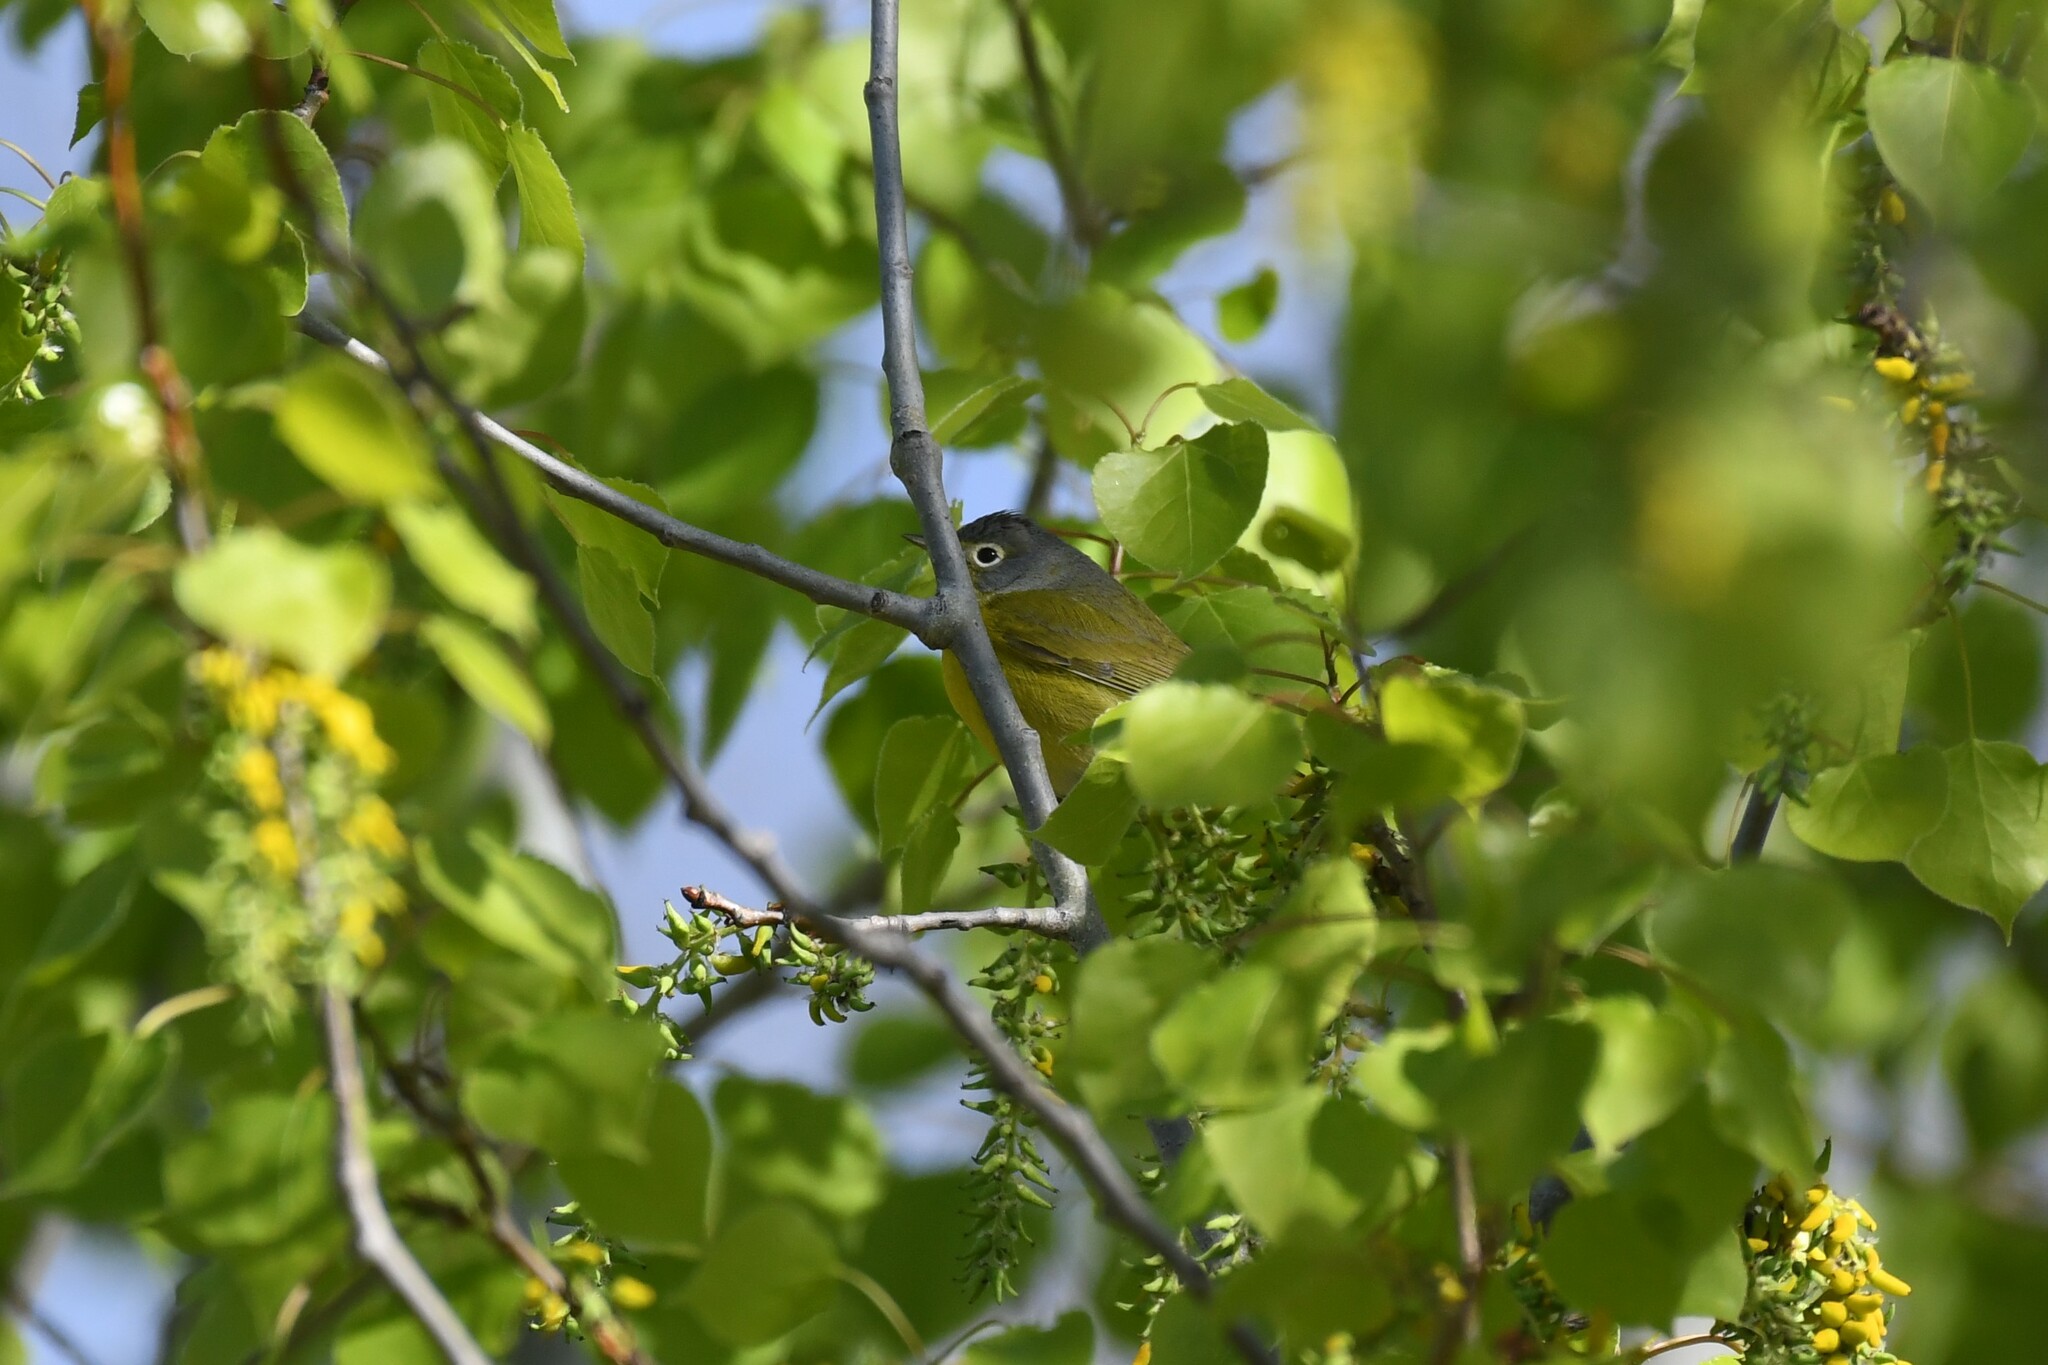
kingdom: Animalia
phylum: Chordata
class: Aves
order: Passeriformes
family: Parulidae
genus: Leiothlypis
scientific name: Leiothlypis ruficapilla
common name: Nashville warbler
